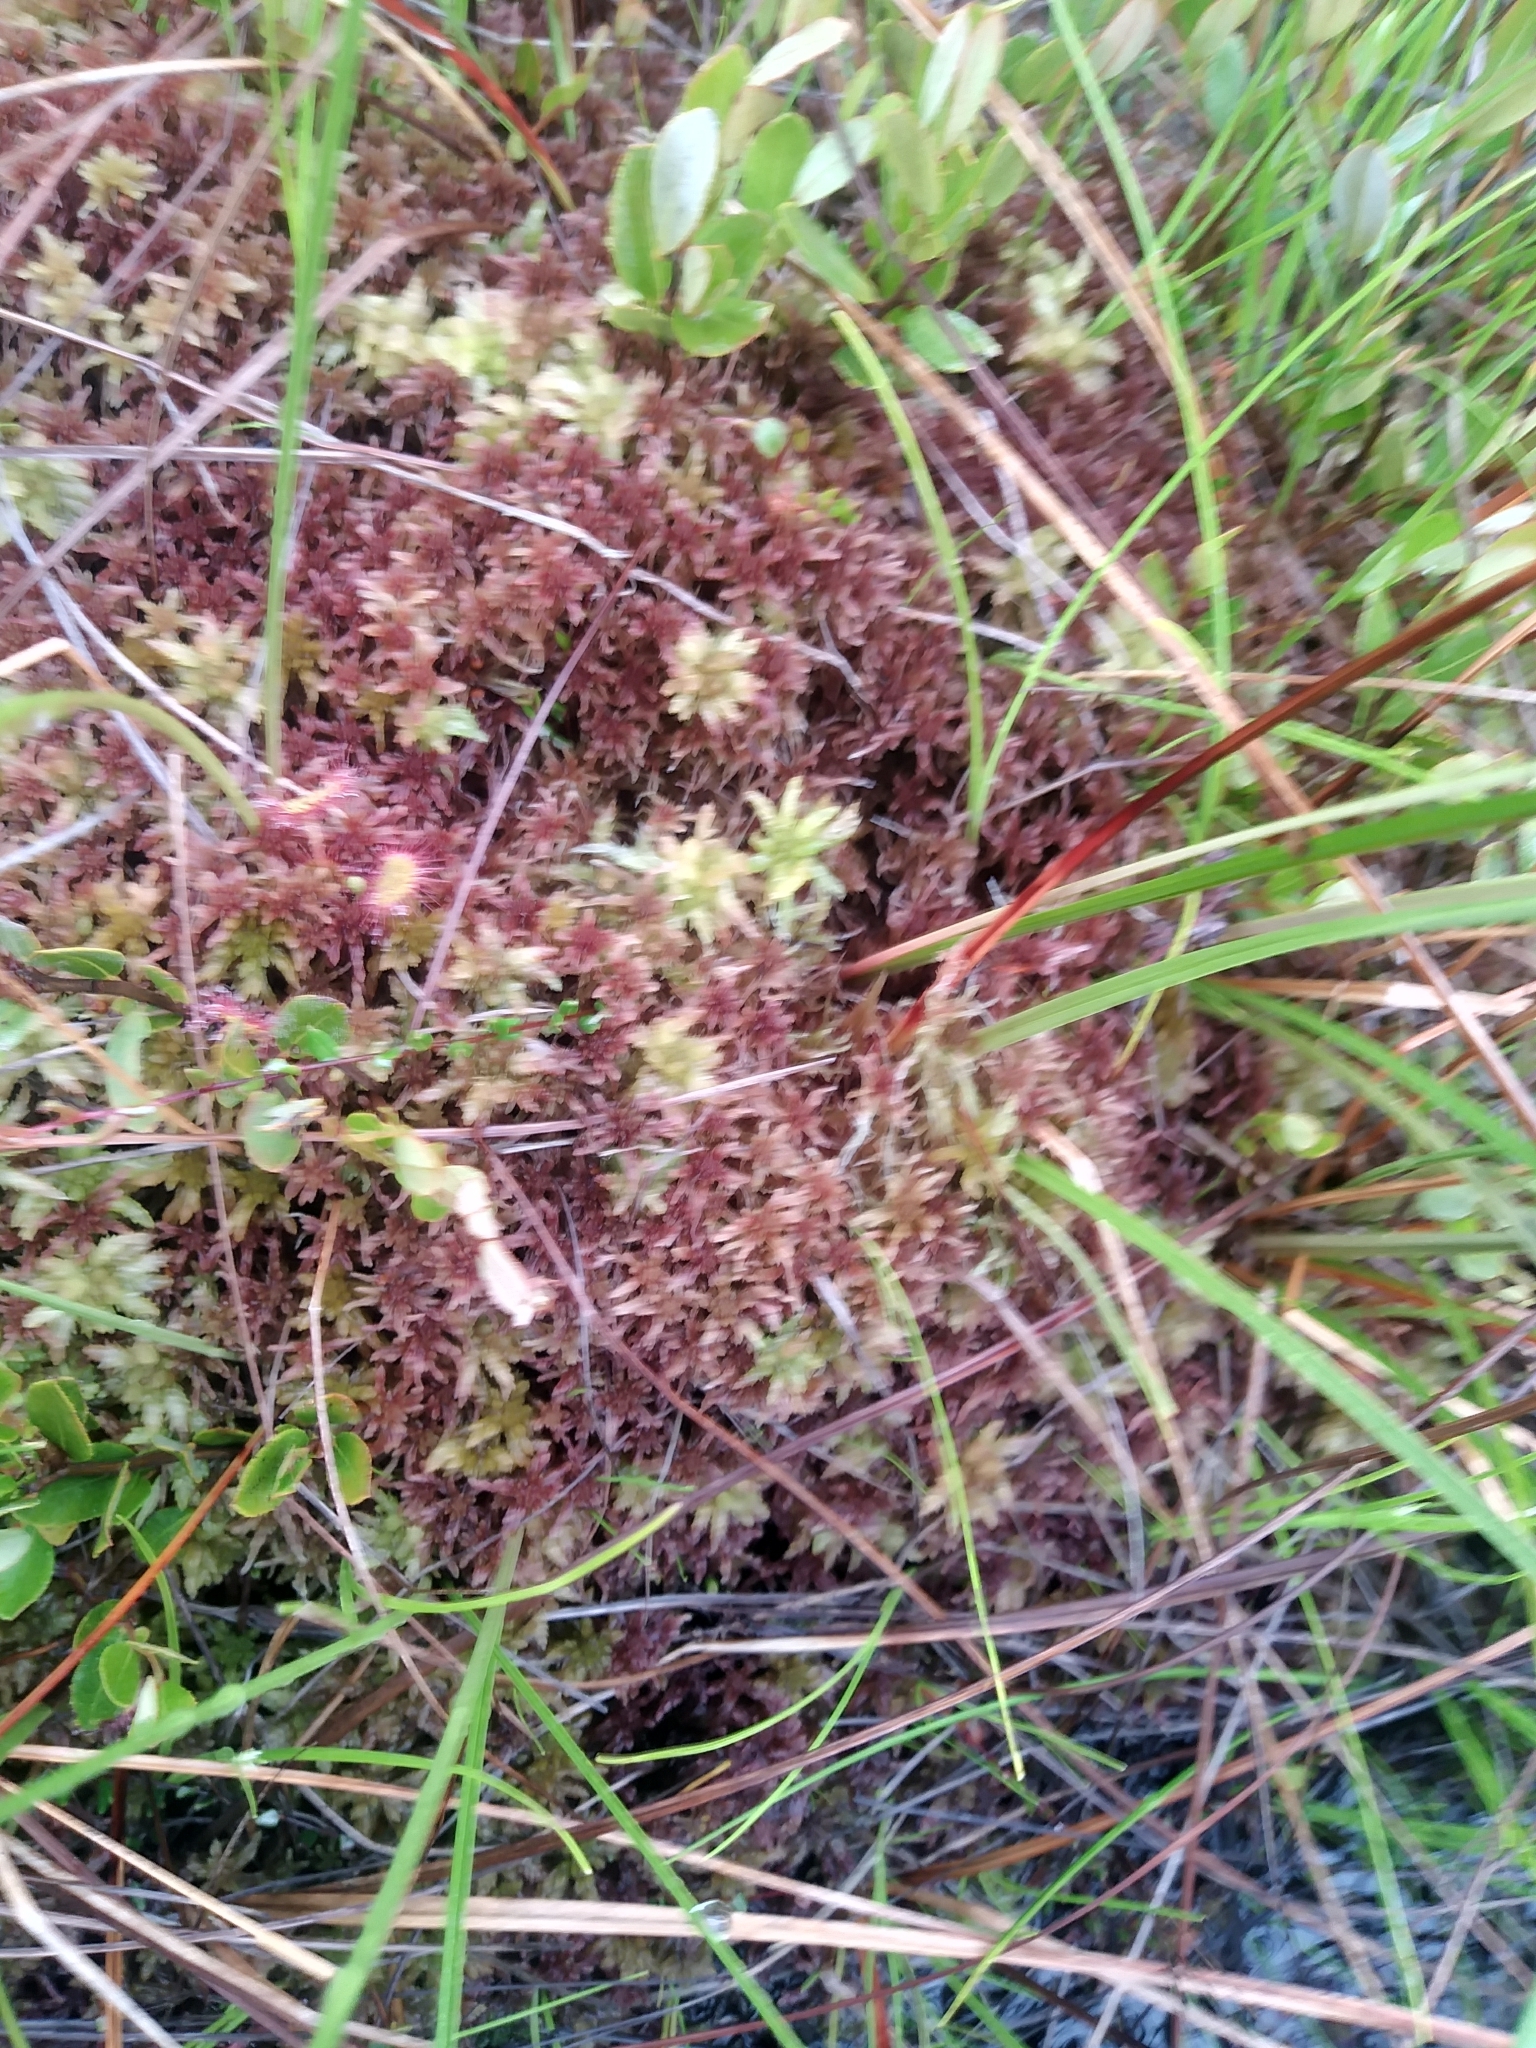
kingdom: Plantae
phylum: Bryophyta
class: Sphagnopsida
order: Sphagnales
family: Sphagnaceae
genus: Sphagnum
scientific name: Sphagnum rubellum
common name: Red peat moss
